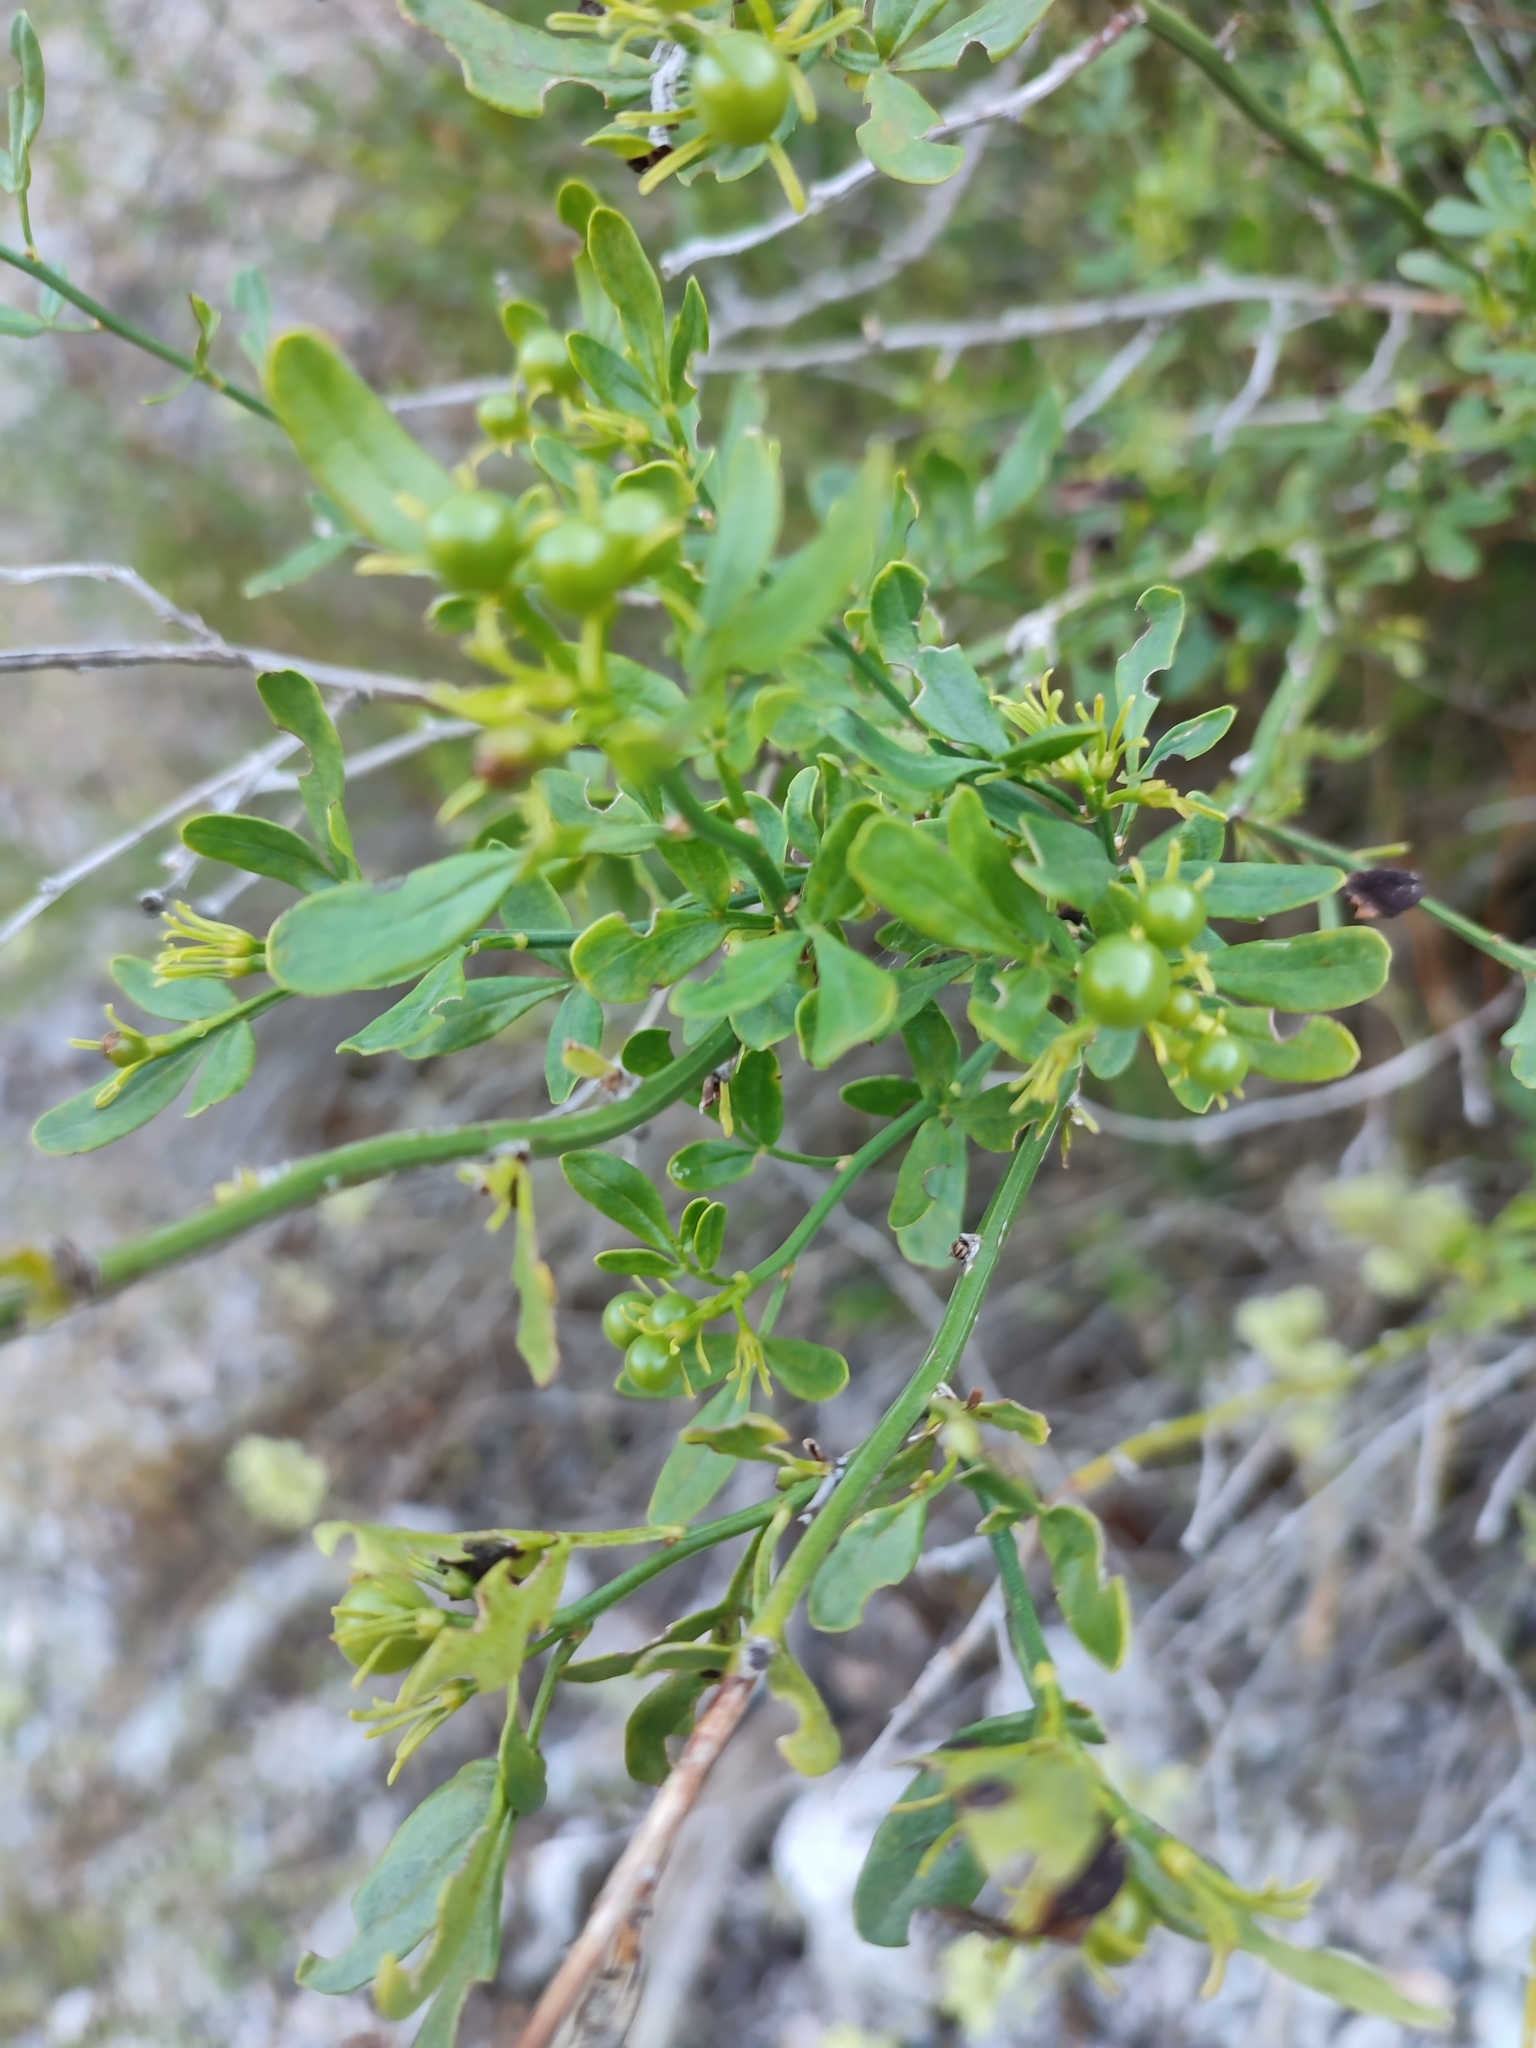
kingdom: Plantae
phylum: Tracheophyta
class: Magnoliopsida
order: Lamiales
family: Oleaceae
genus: Chrysojasminum
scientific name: Chrysojasminum fruticans
